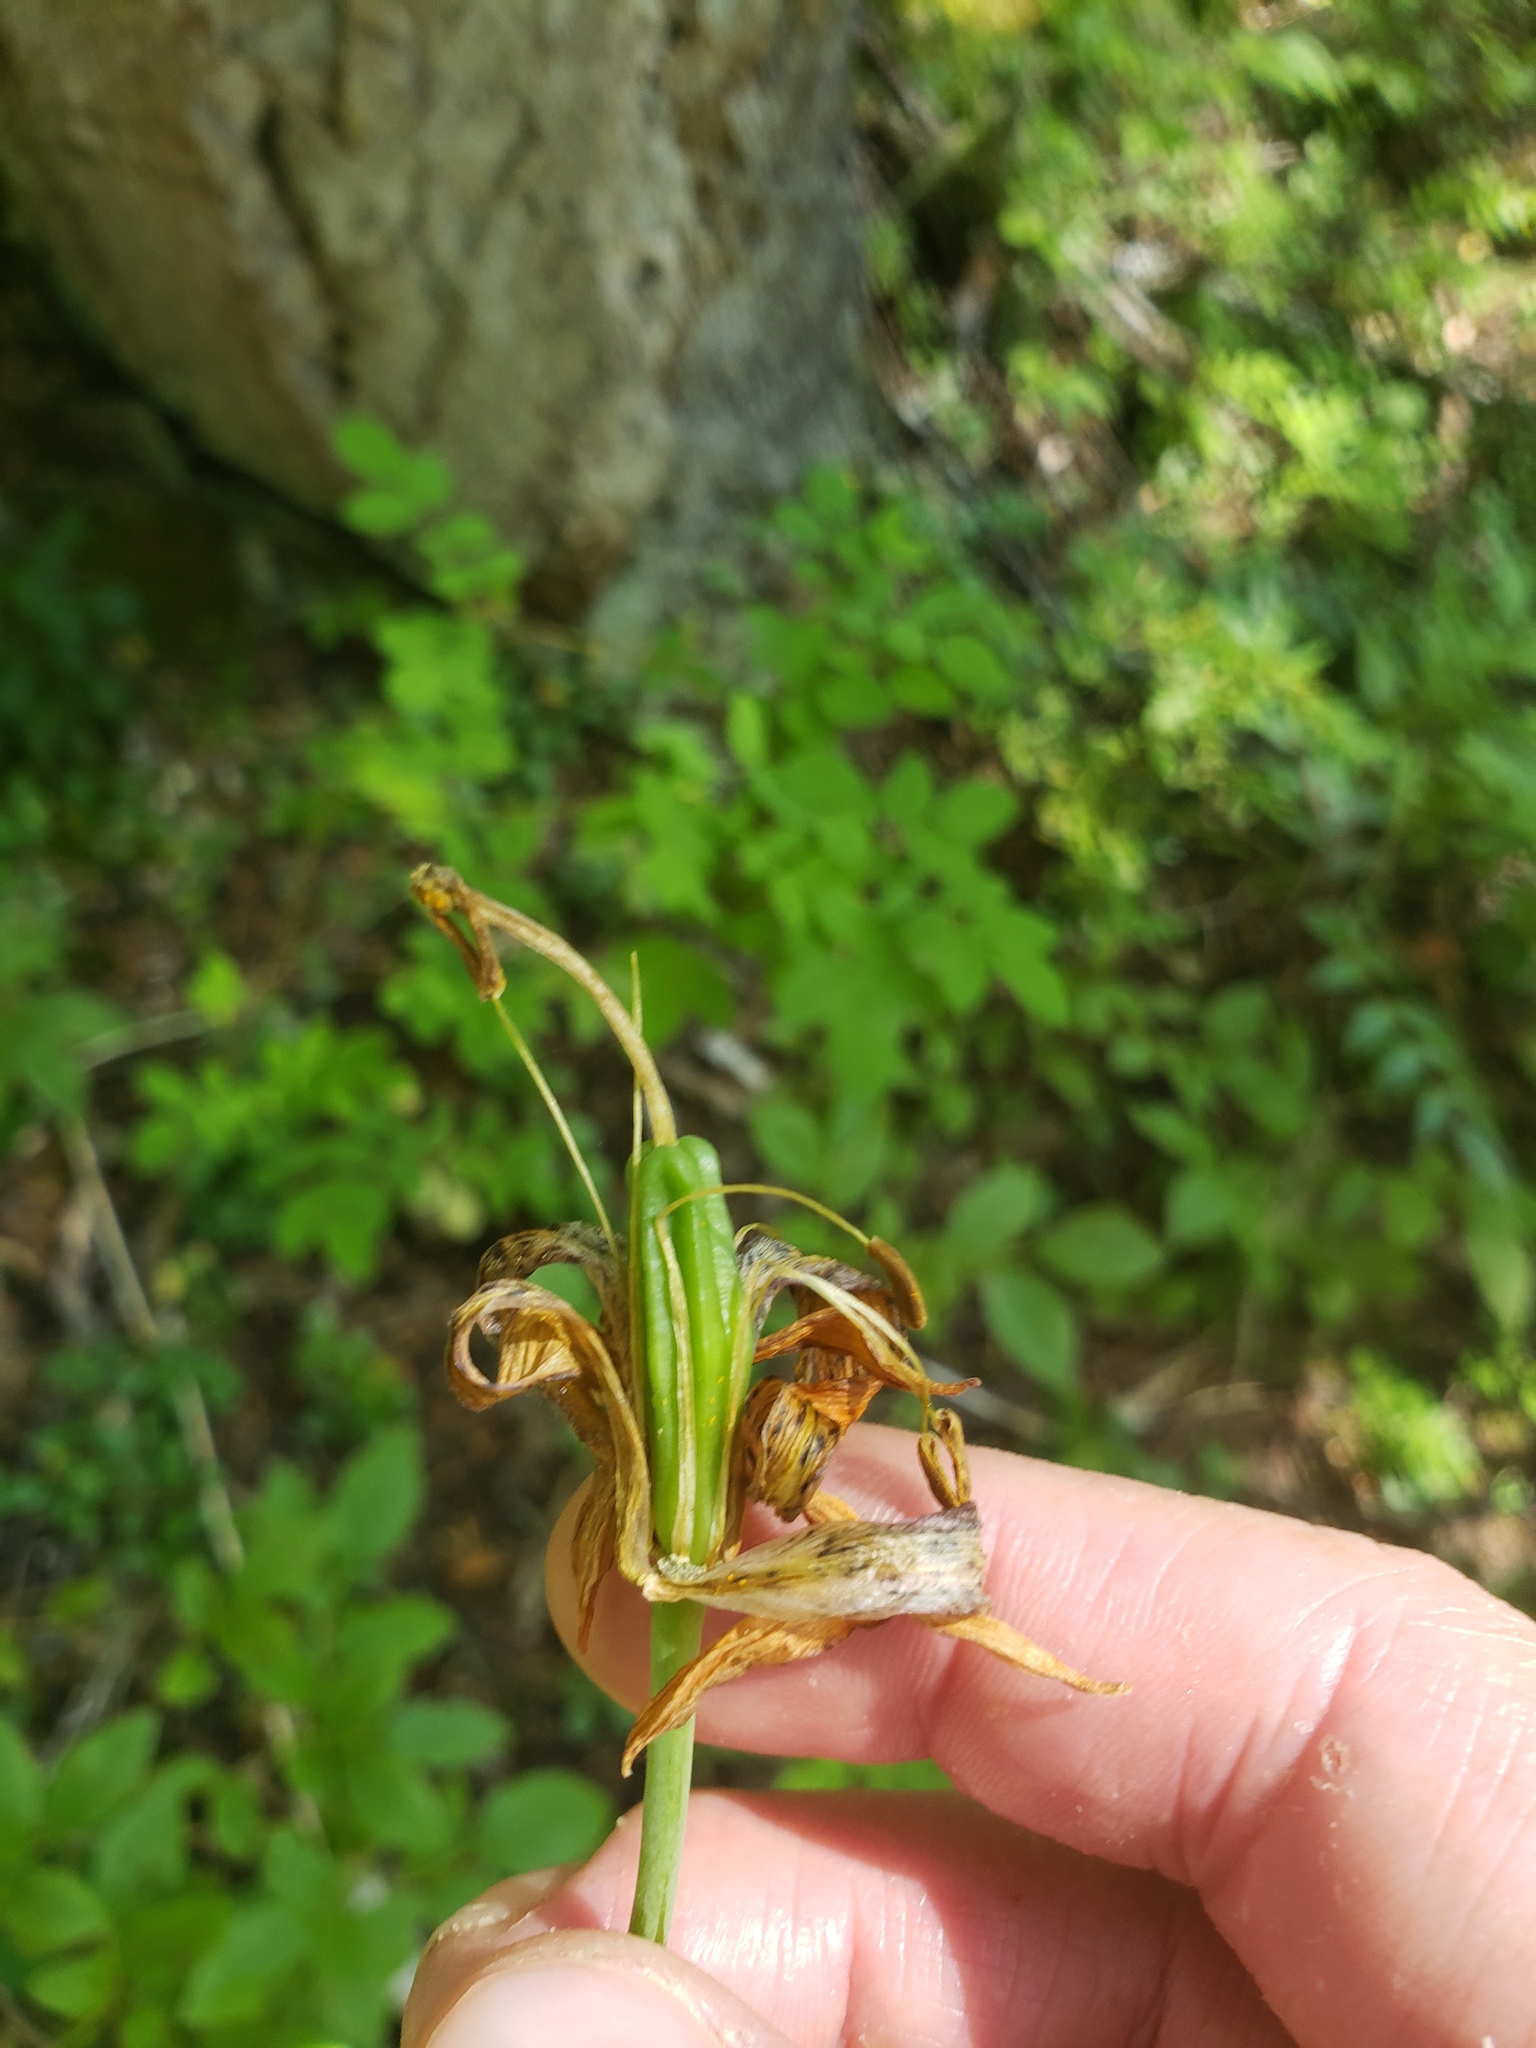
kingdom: Plantae
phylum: Tracheophyta
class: Liliopsida
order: Liliales
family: Liliaceae
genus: Lilium
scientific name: Lilium columbianum
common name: Columbia lily
